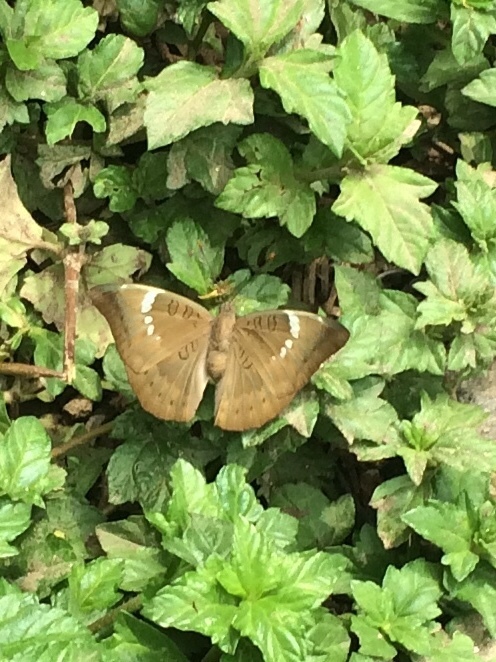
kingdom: Animalia
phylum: Arthropoda
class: Insecta
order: Lepidoptera
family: Nymphalidae
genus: Euthalia
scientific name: Euthalia aconthea
